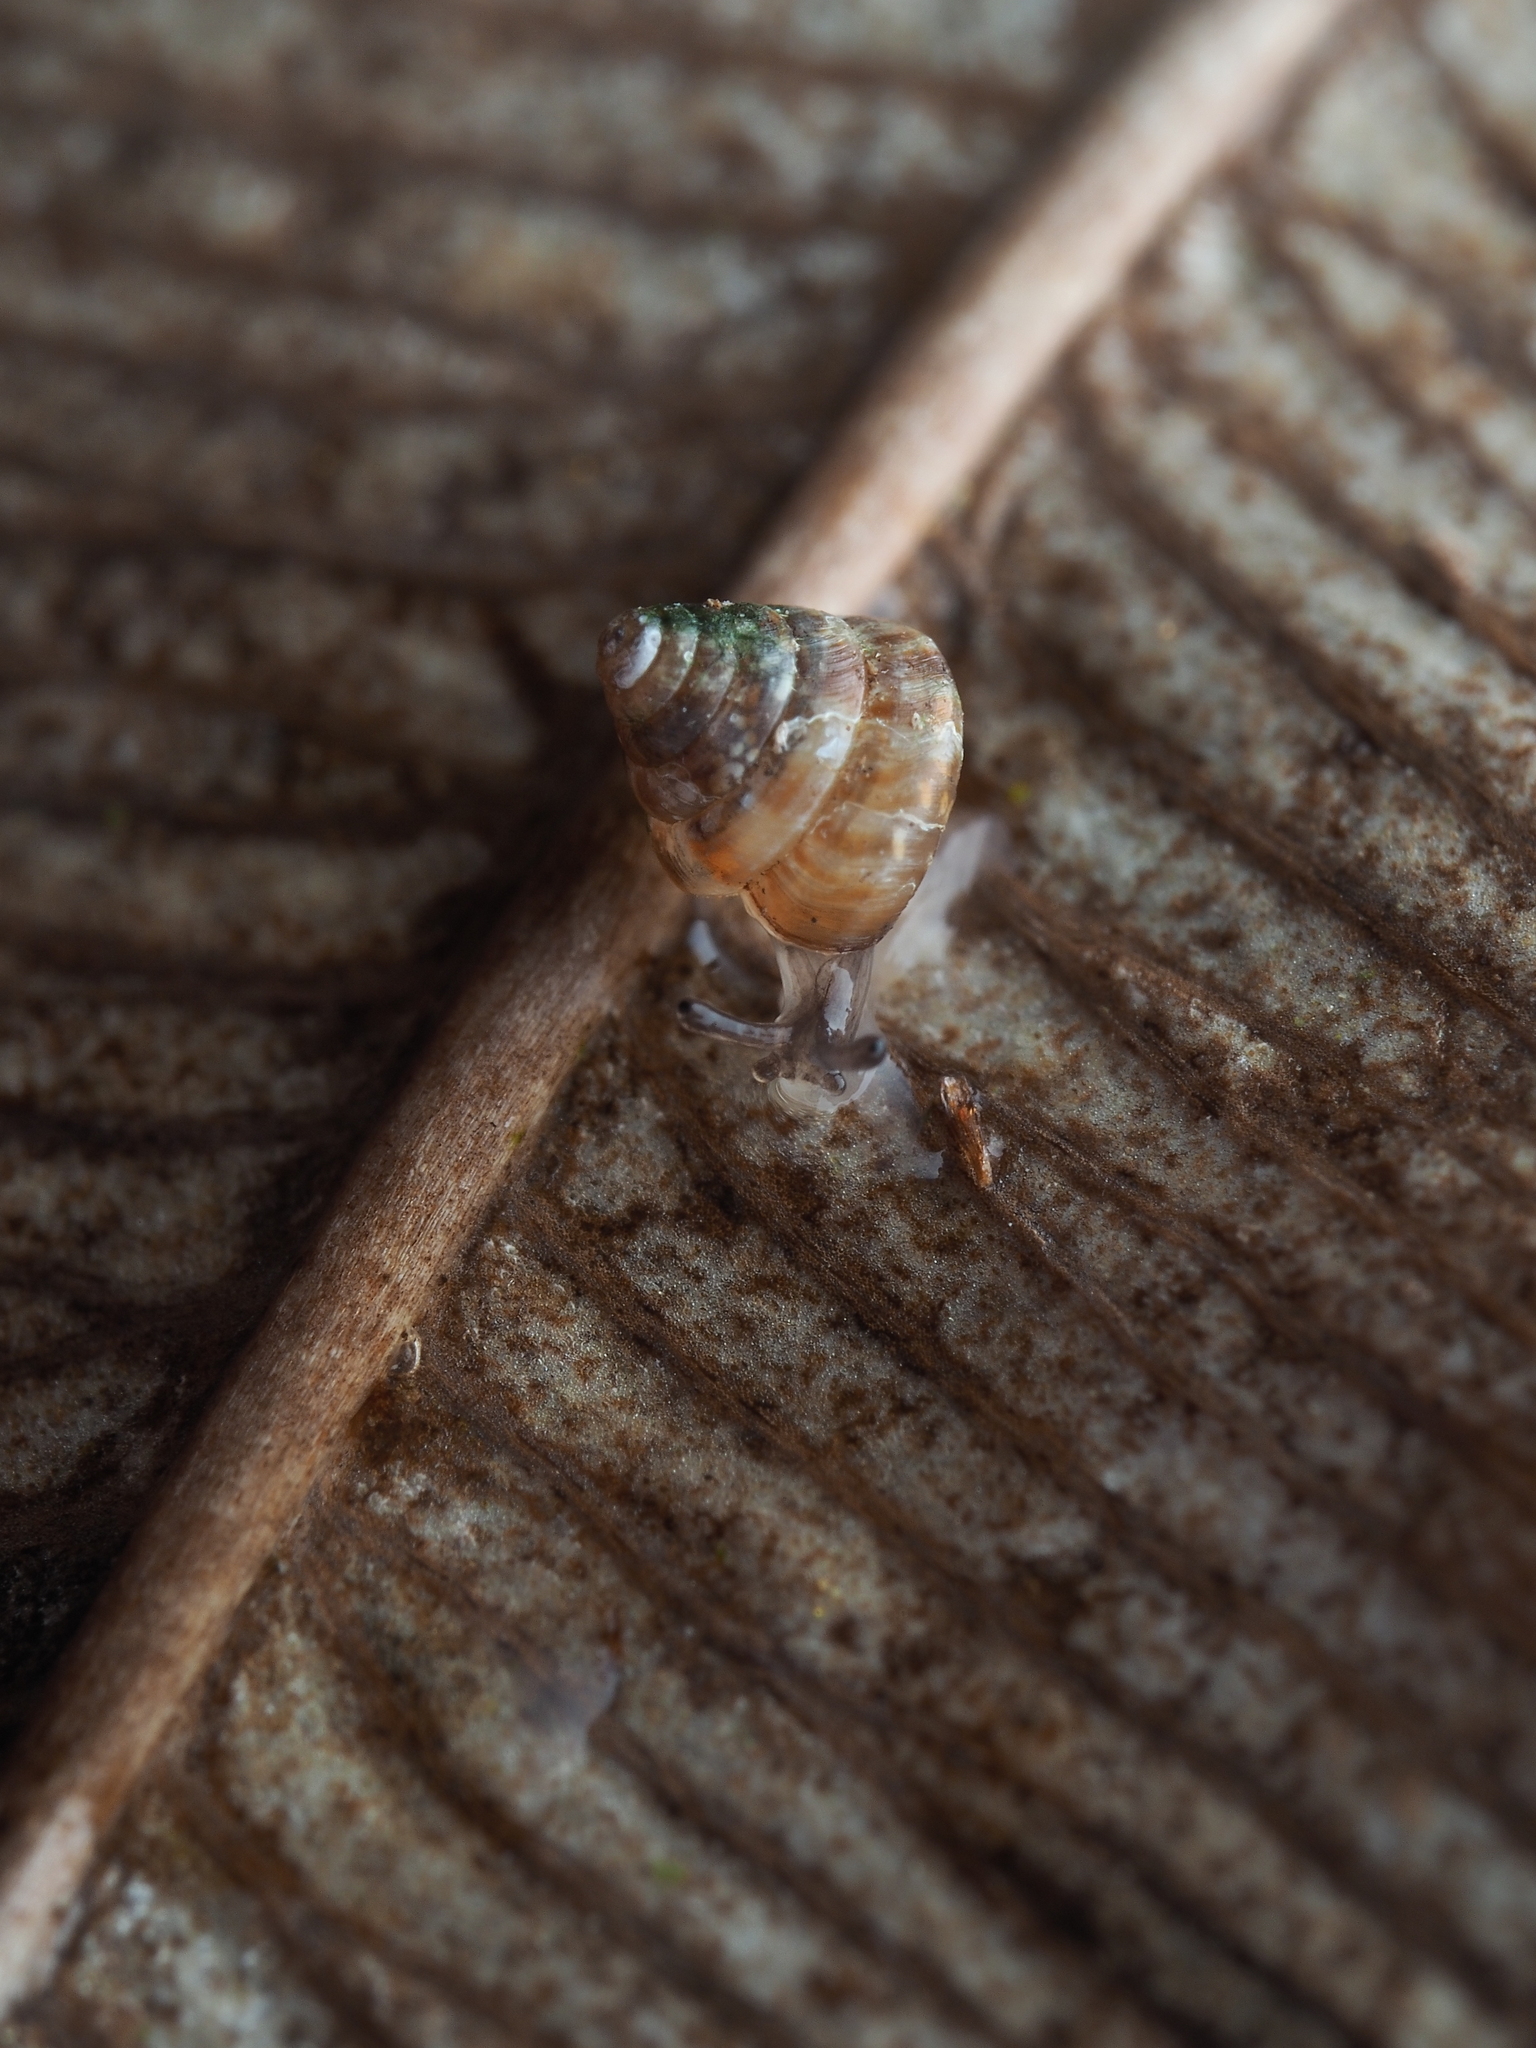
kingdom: Animalia
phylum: Mollusca
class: Gastropoda
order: Stylommatophora
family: Punctidae
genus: Phrixgnathus
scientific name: Phrixgnathus erigone
